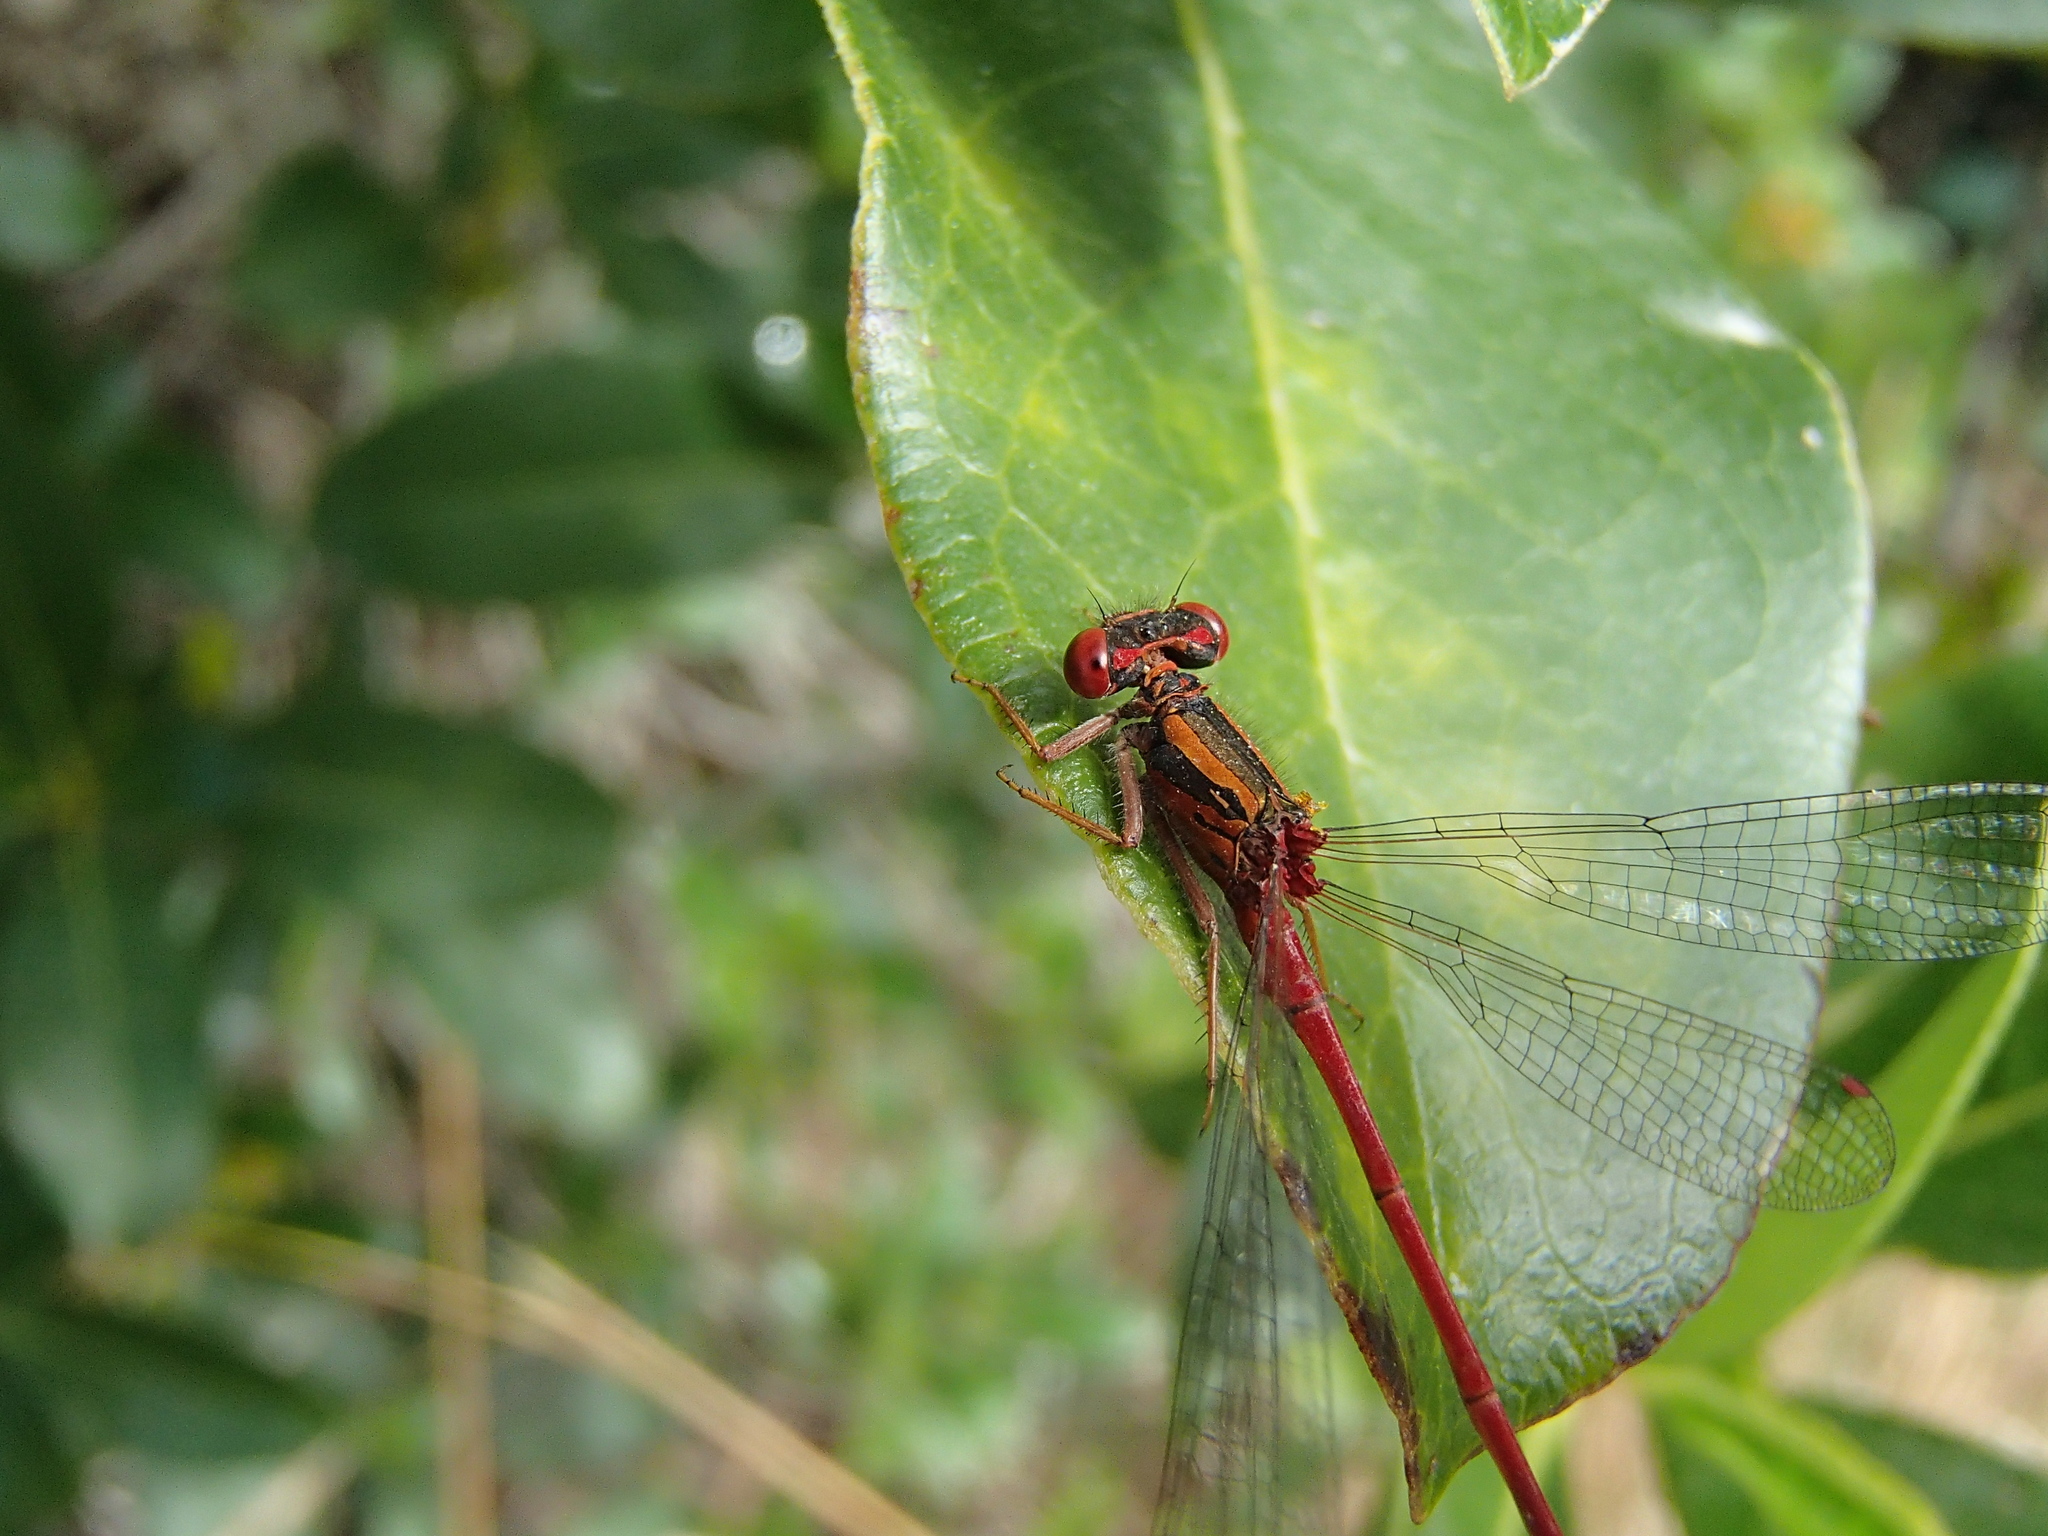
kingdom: Animalia
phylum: Arthropoda
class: Insecta
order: Odonata
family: Coenagrionidae
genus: Xanthocnemis
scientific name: Xanthocnemis zealandica
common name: Common redcoat damselfly
